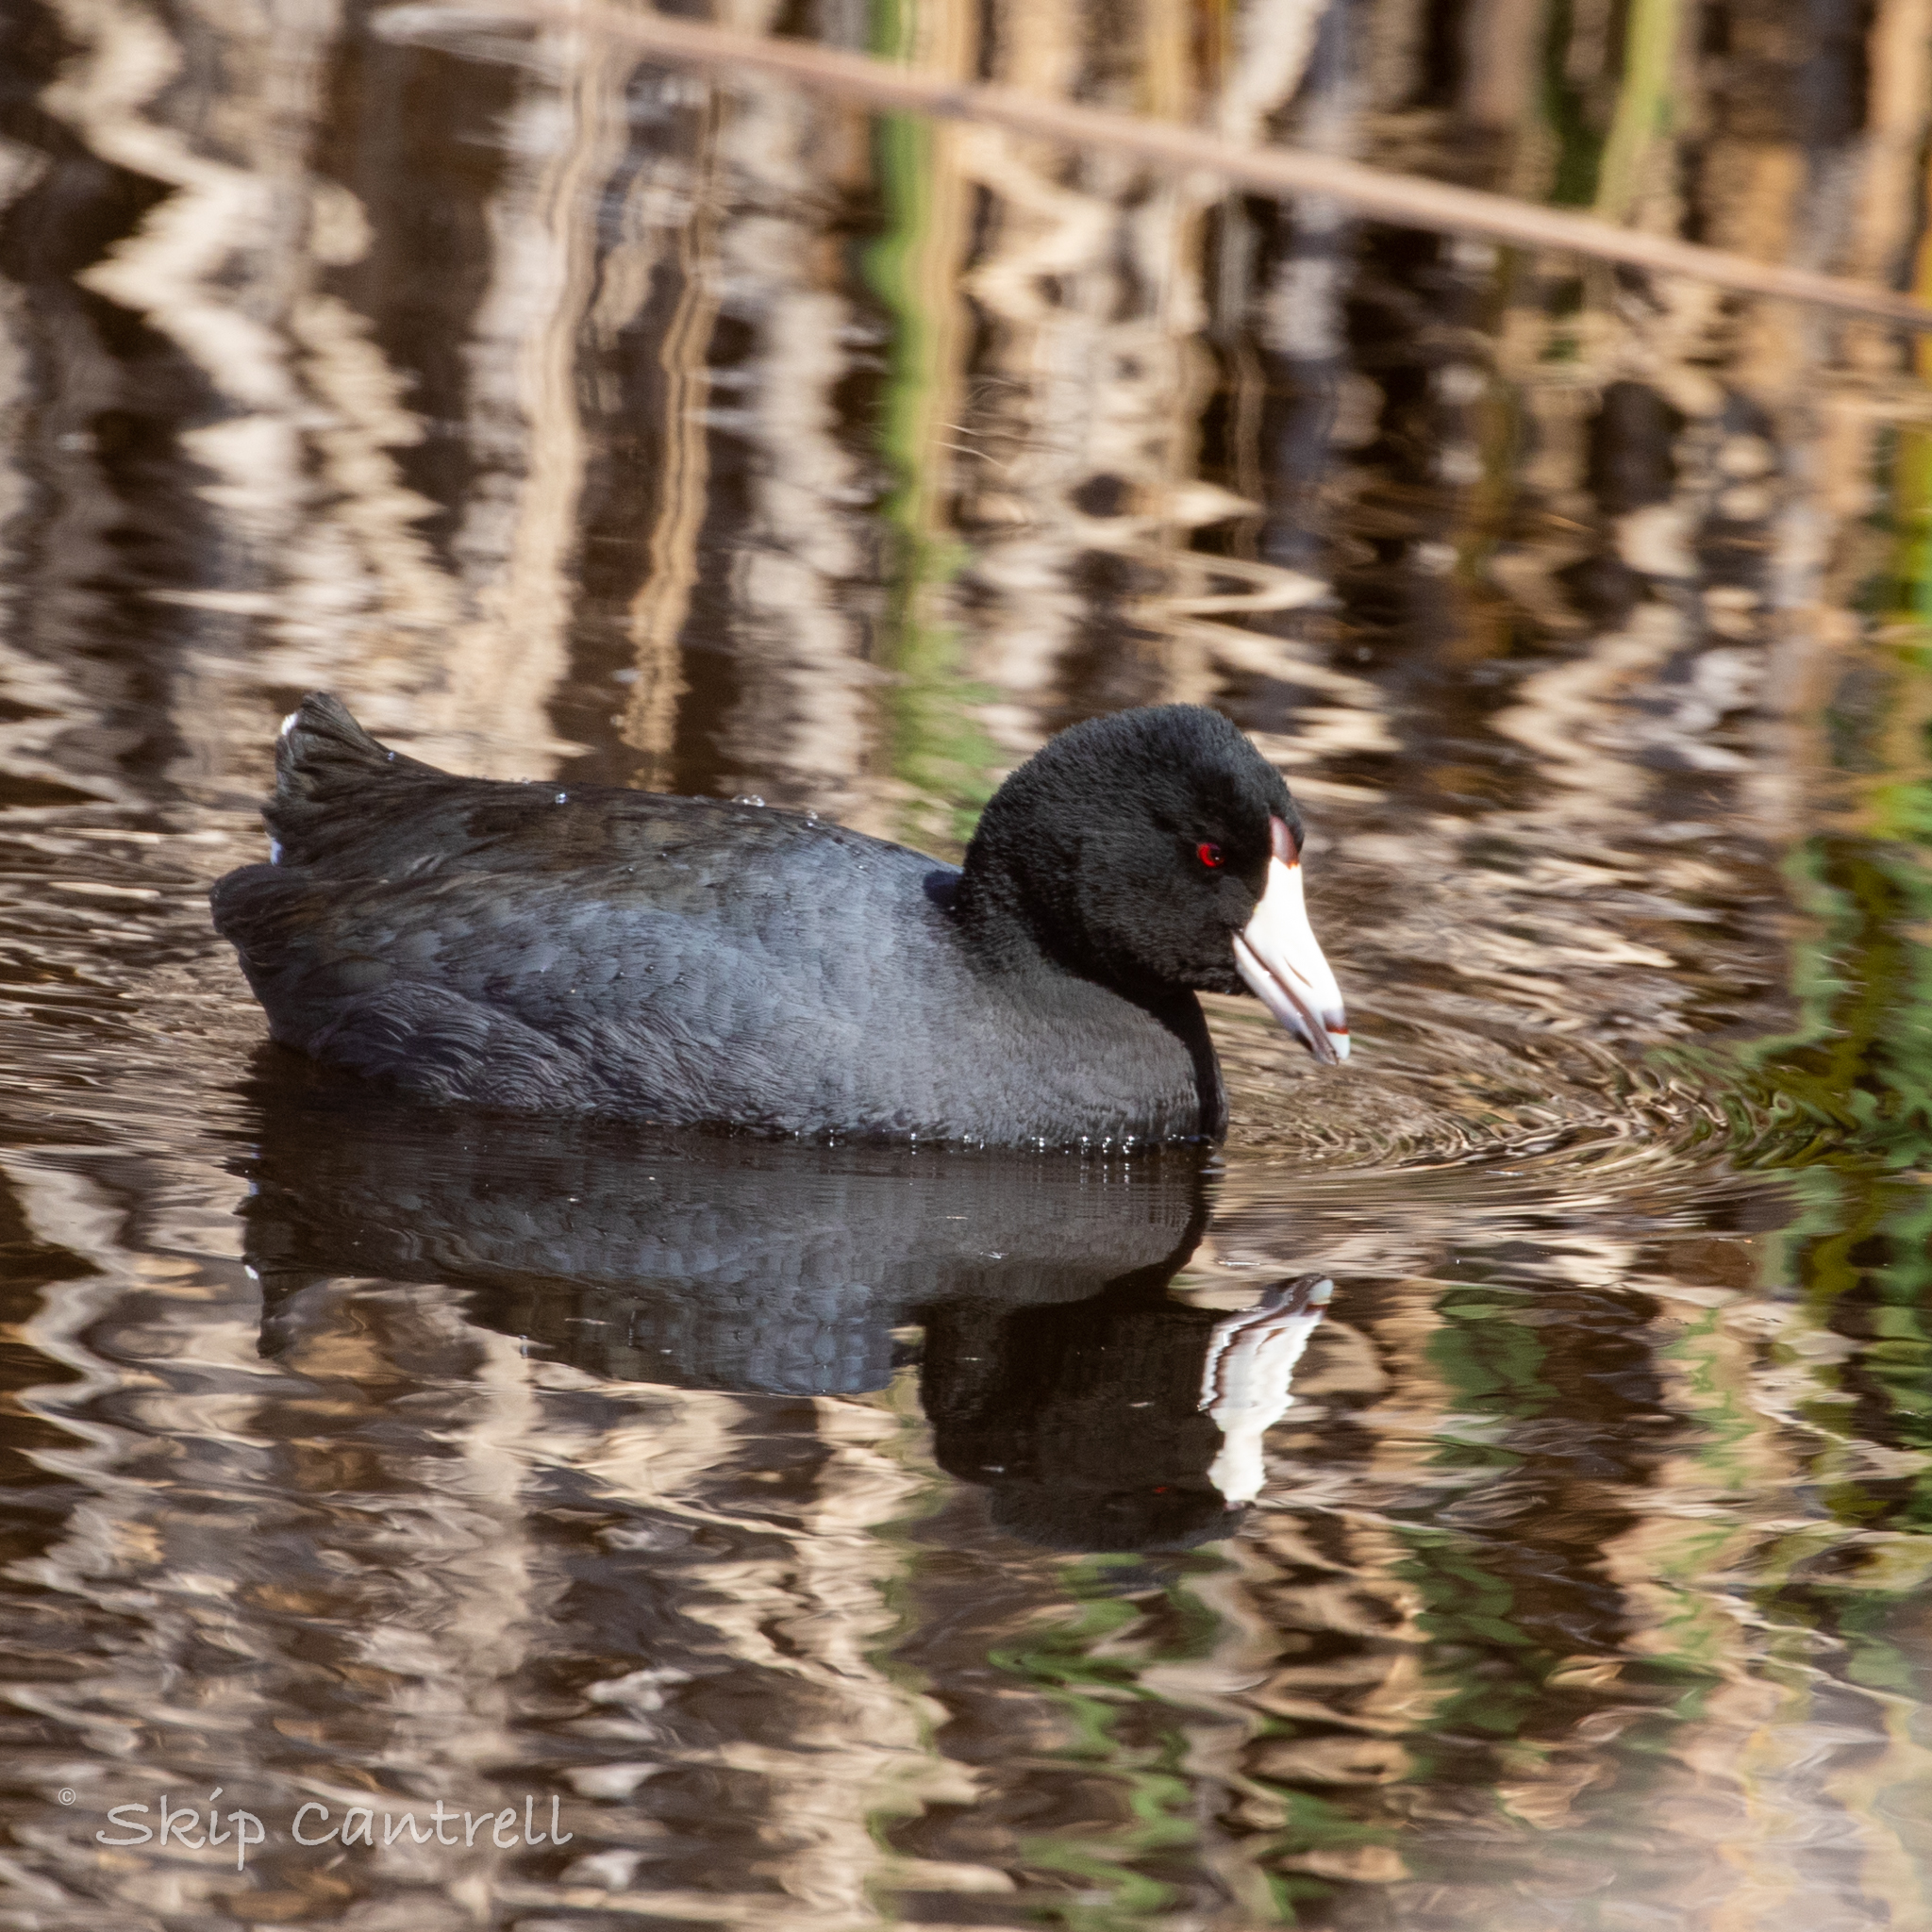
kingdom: Animalia
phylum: Chordata
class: Aves
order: Gruiformes
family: Rallidae
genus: Fulica
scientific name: Fulica americana
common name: American coot
